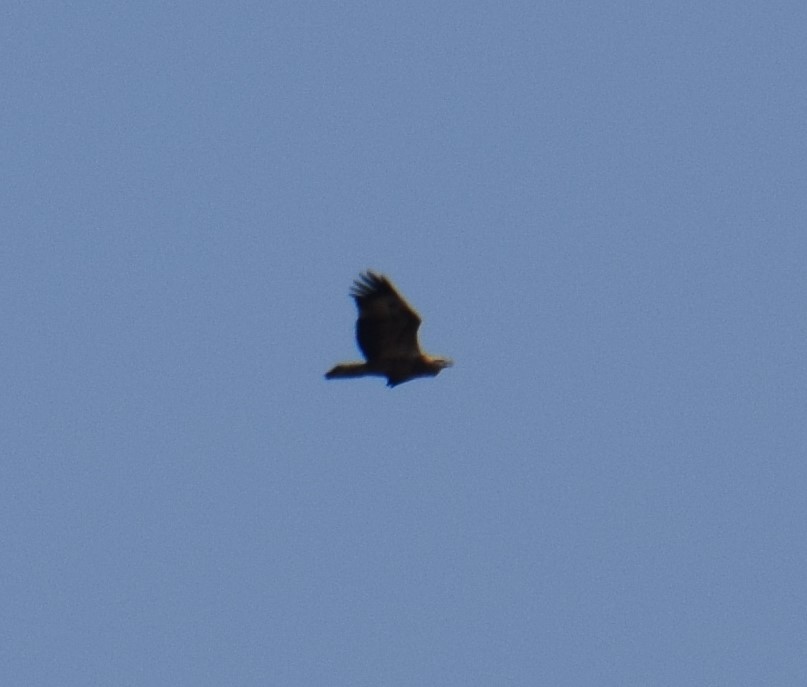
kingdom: Animalia
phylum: Chordata
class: Aves
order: Accipitriformes
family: Accipitridae
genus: Haliaeetus
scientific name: Haliaeetus leucogaster
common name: White-bellied sea eagle
